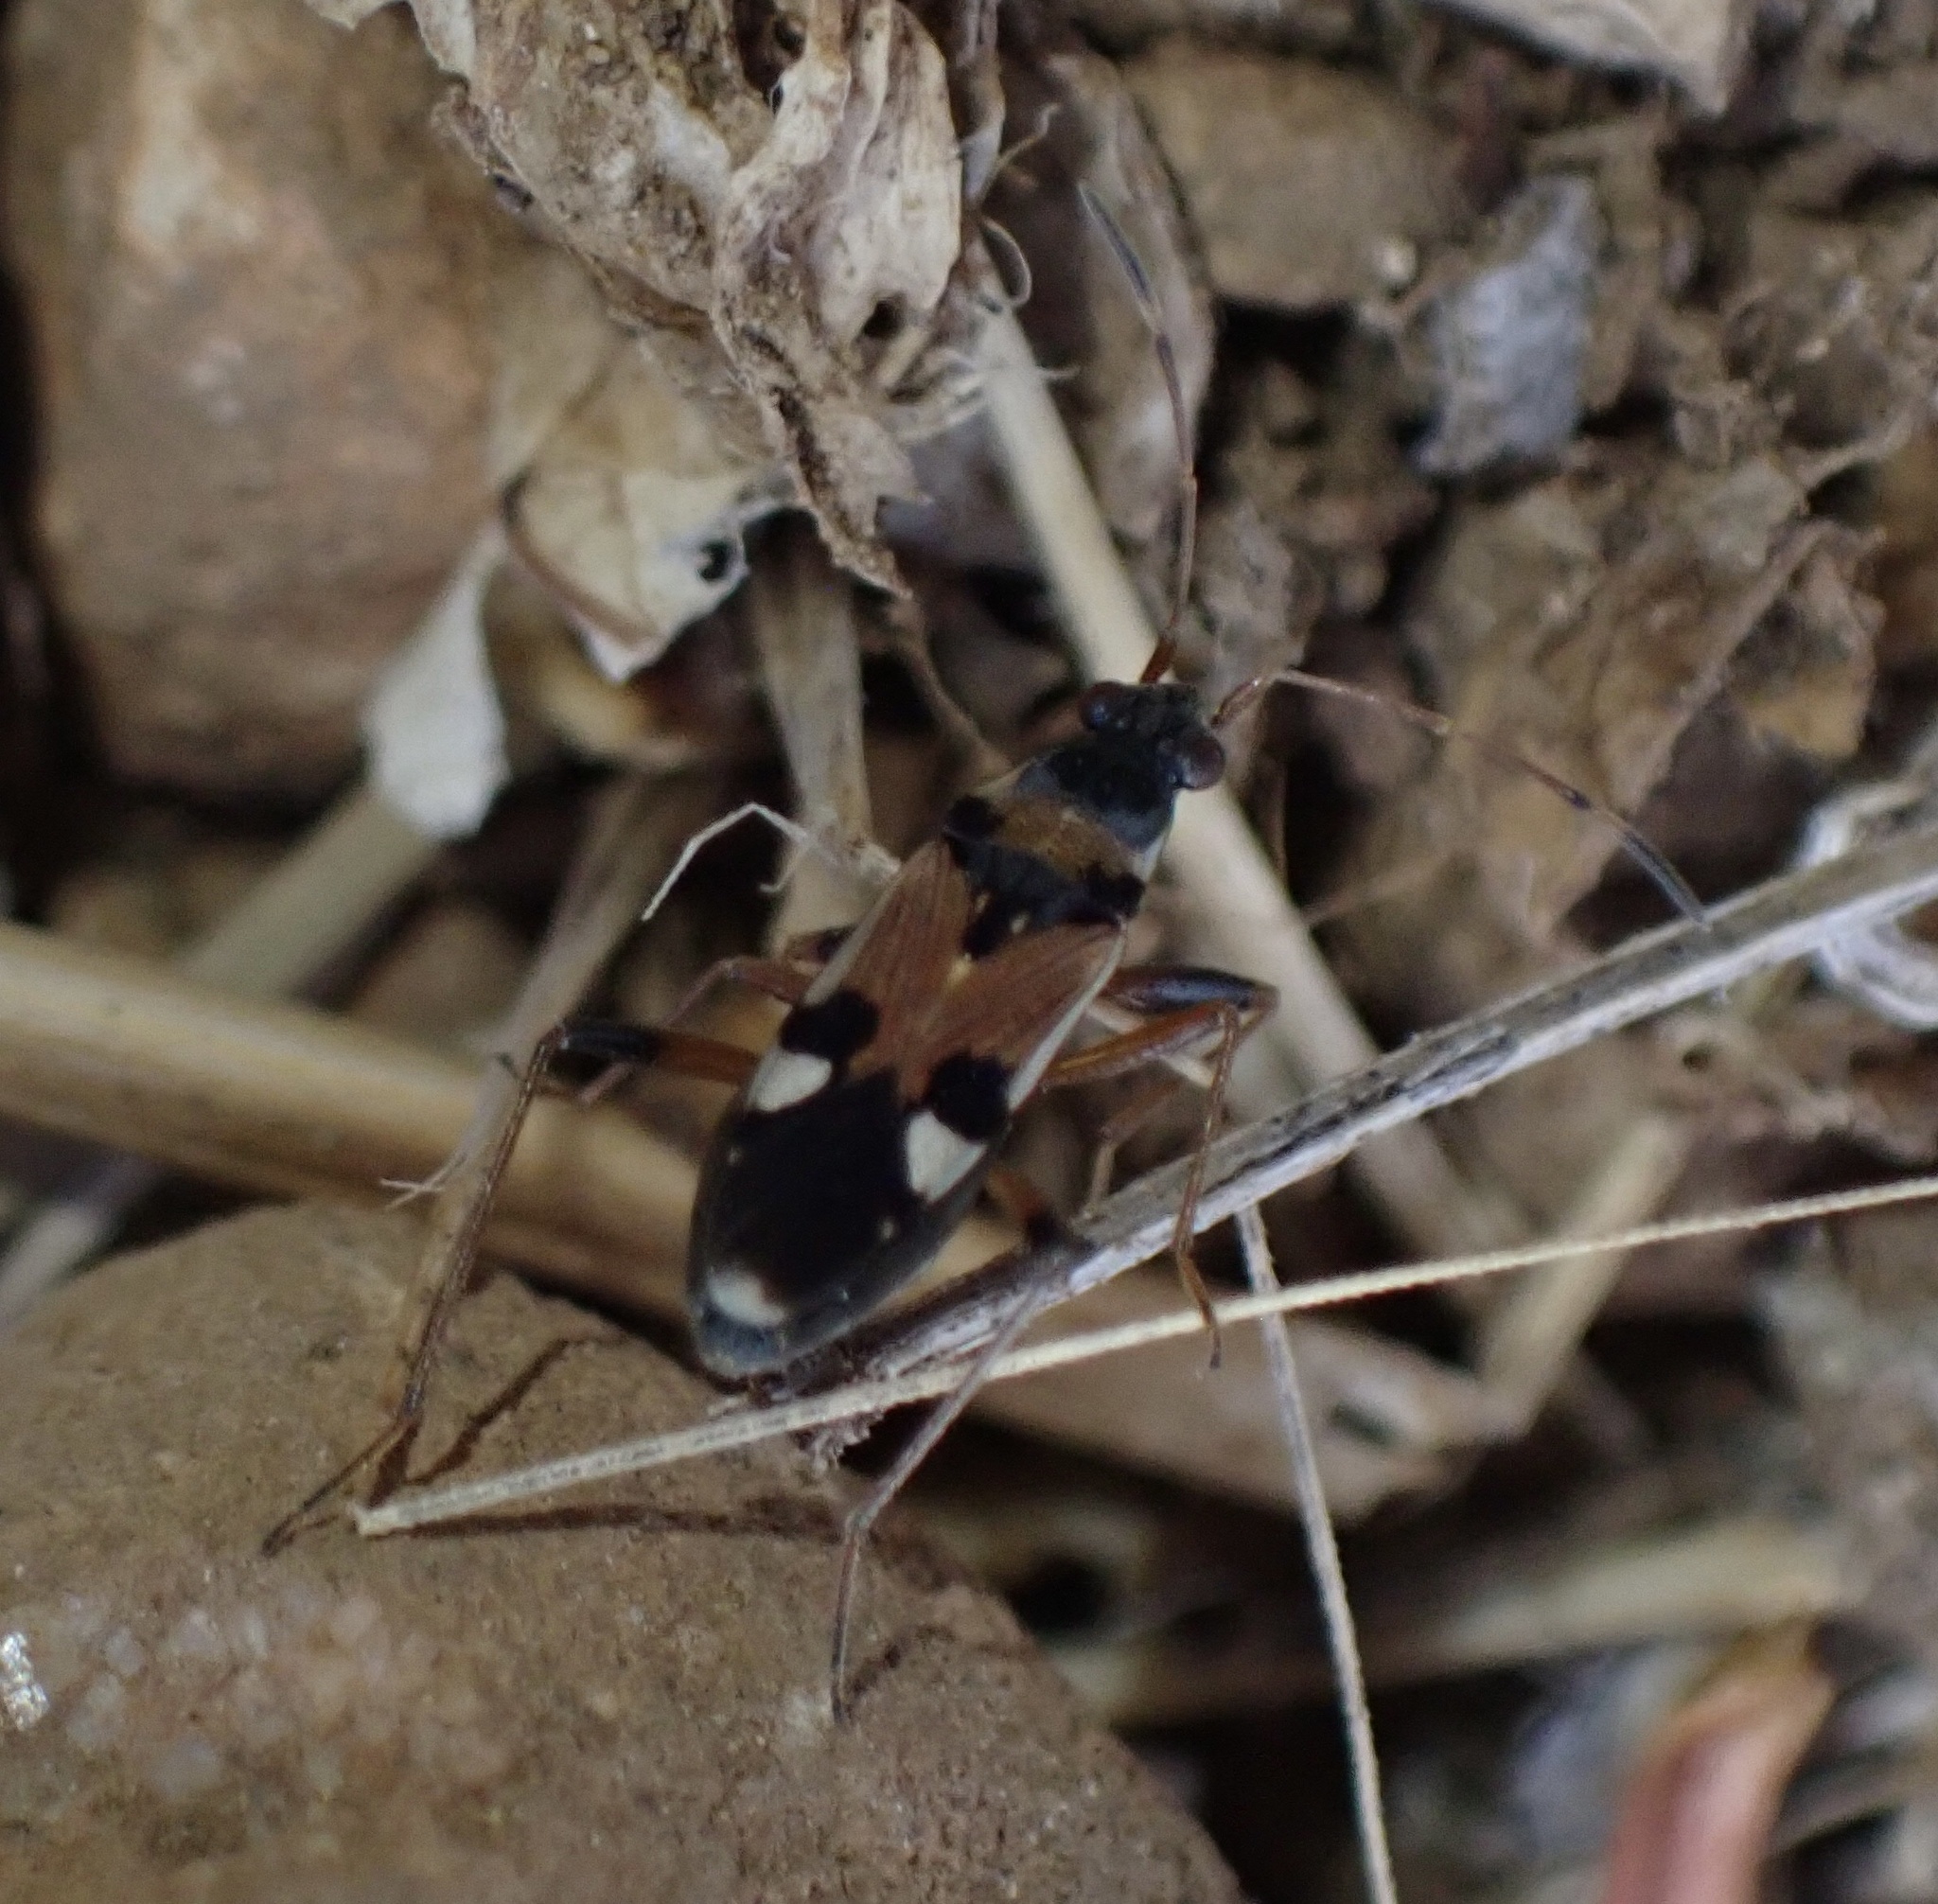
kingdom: Animalia
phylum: Arthropoda
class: Insecta
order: Hemiptera
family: Rhyparochromidae
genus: Beosus
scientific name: Beosus quadripunctatus
